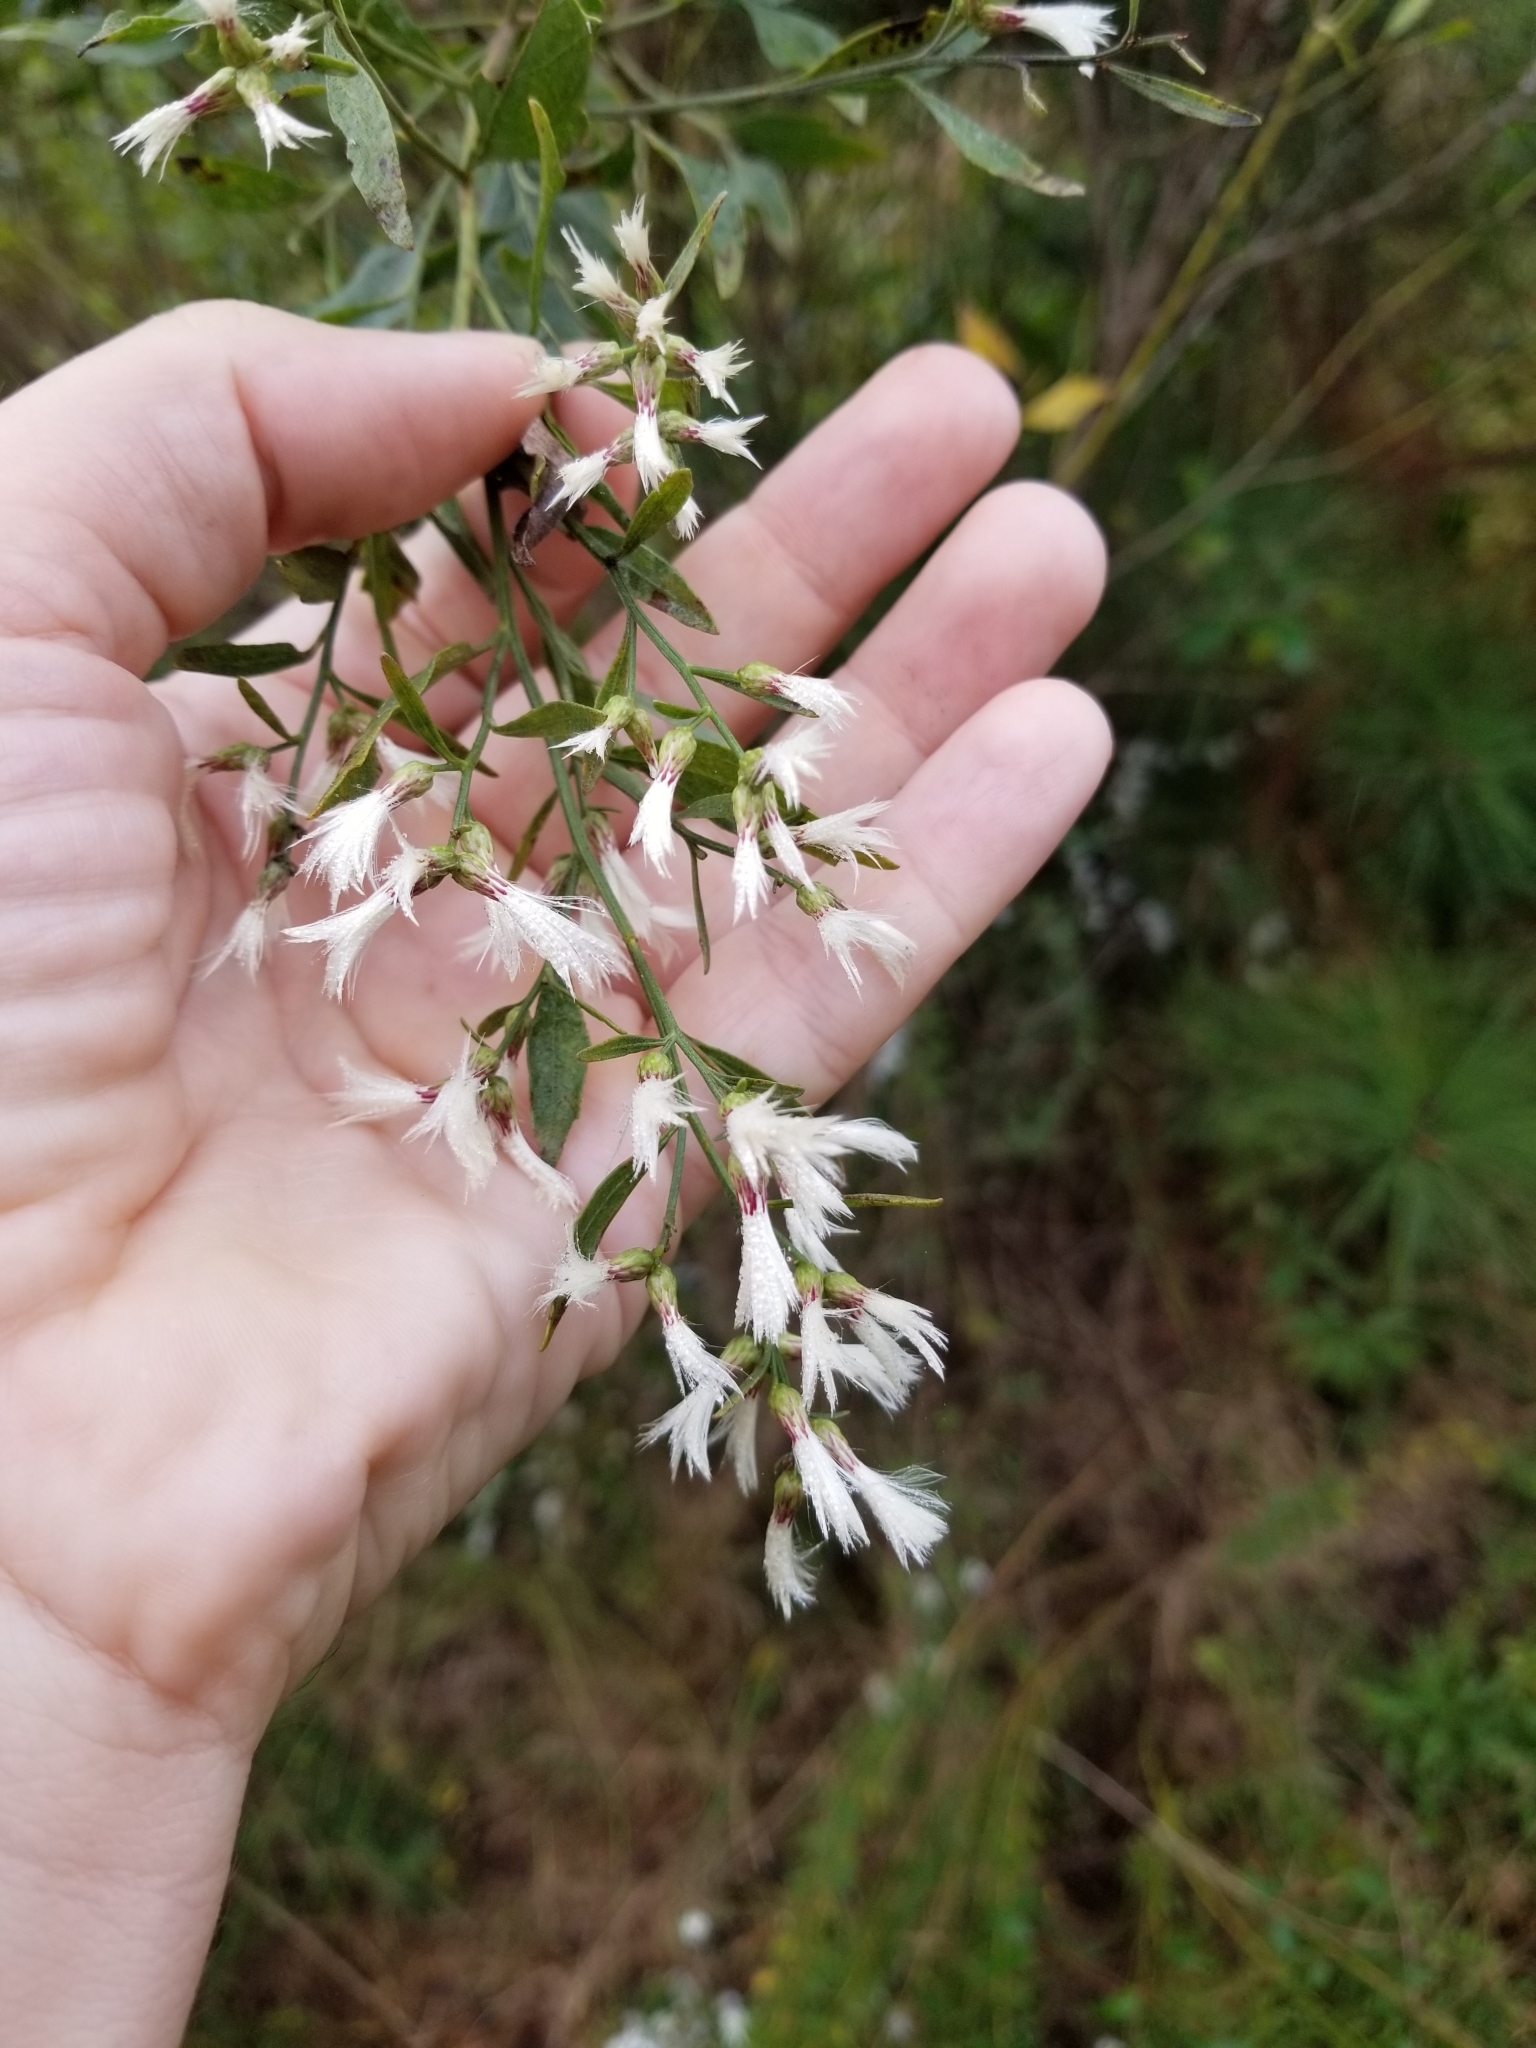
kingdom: Plantae
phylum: Tracheophyta
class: Magnoliopsida
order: Asterales
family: Asteraceae
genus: Baccharis
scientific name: Baccharis halimifolia
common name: Eastern baccharis
